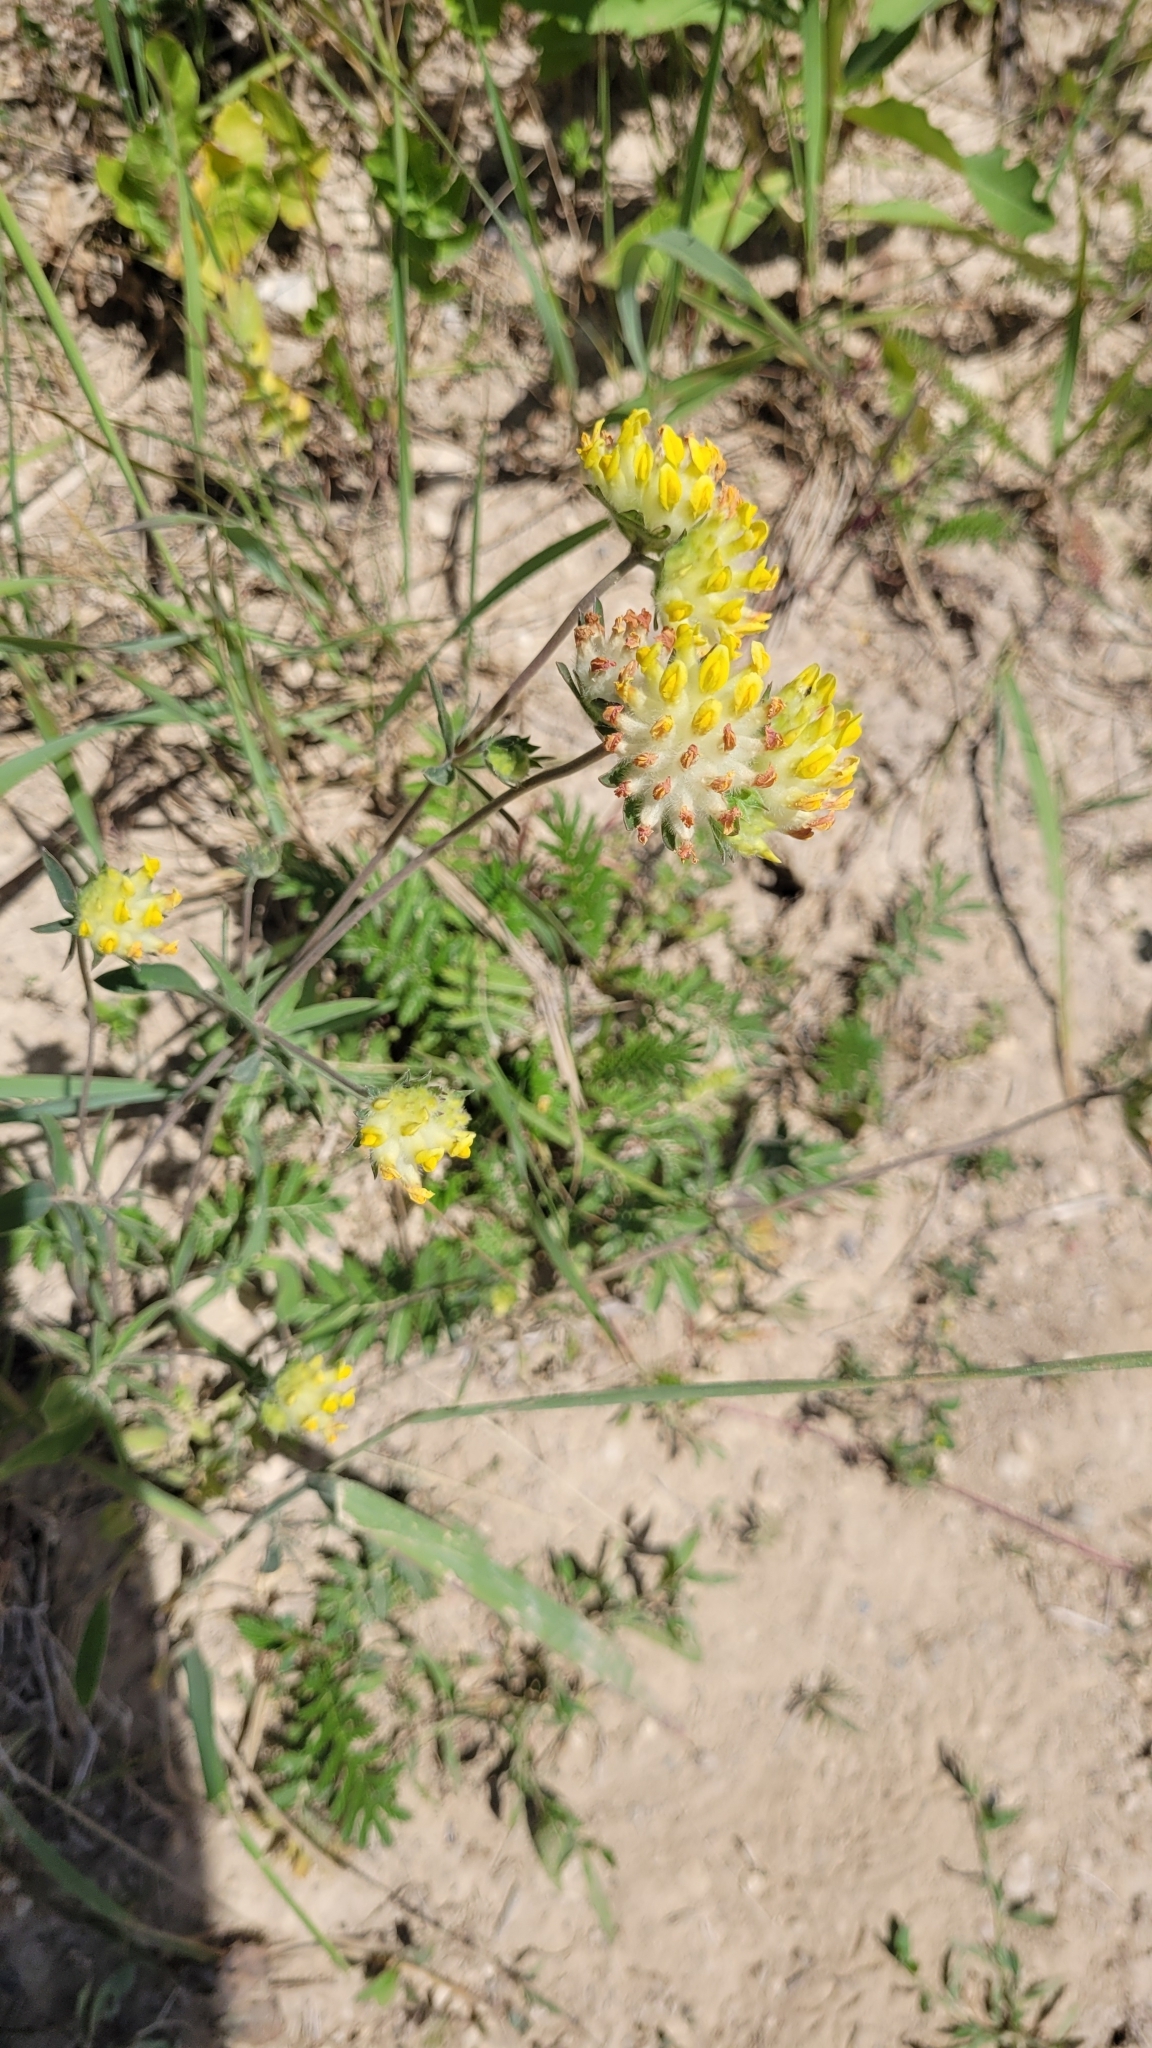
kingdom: Plantae
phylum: Tracheophyta
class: Magnoliopsida
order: Fabales
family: Fabaceae
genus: Anthyllis
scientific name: Anthyllis vulneraria
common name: Kidney vetch
